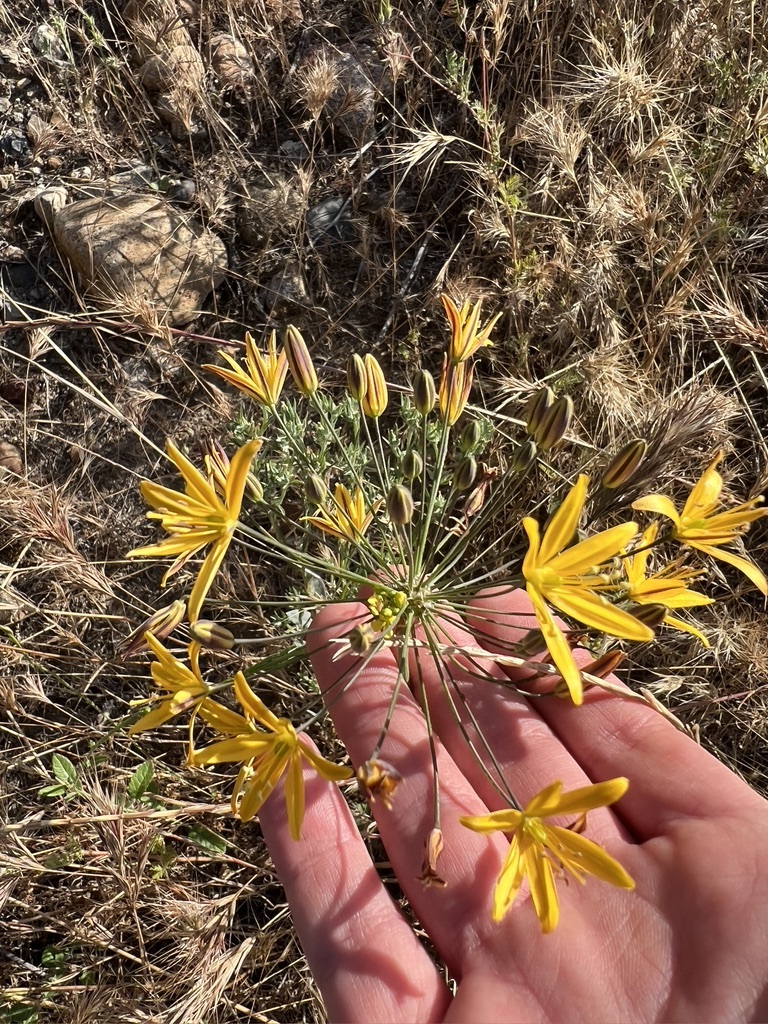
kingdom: Plantae
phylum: Tracheophyta
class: Liliopsida
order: Asparagales
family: Asparagaceae
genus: Bloomeria
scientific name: Bloomeria crocea
